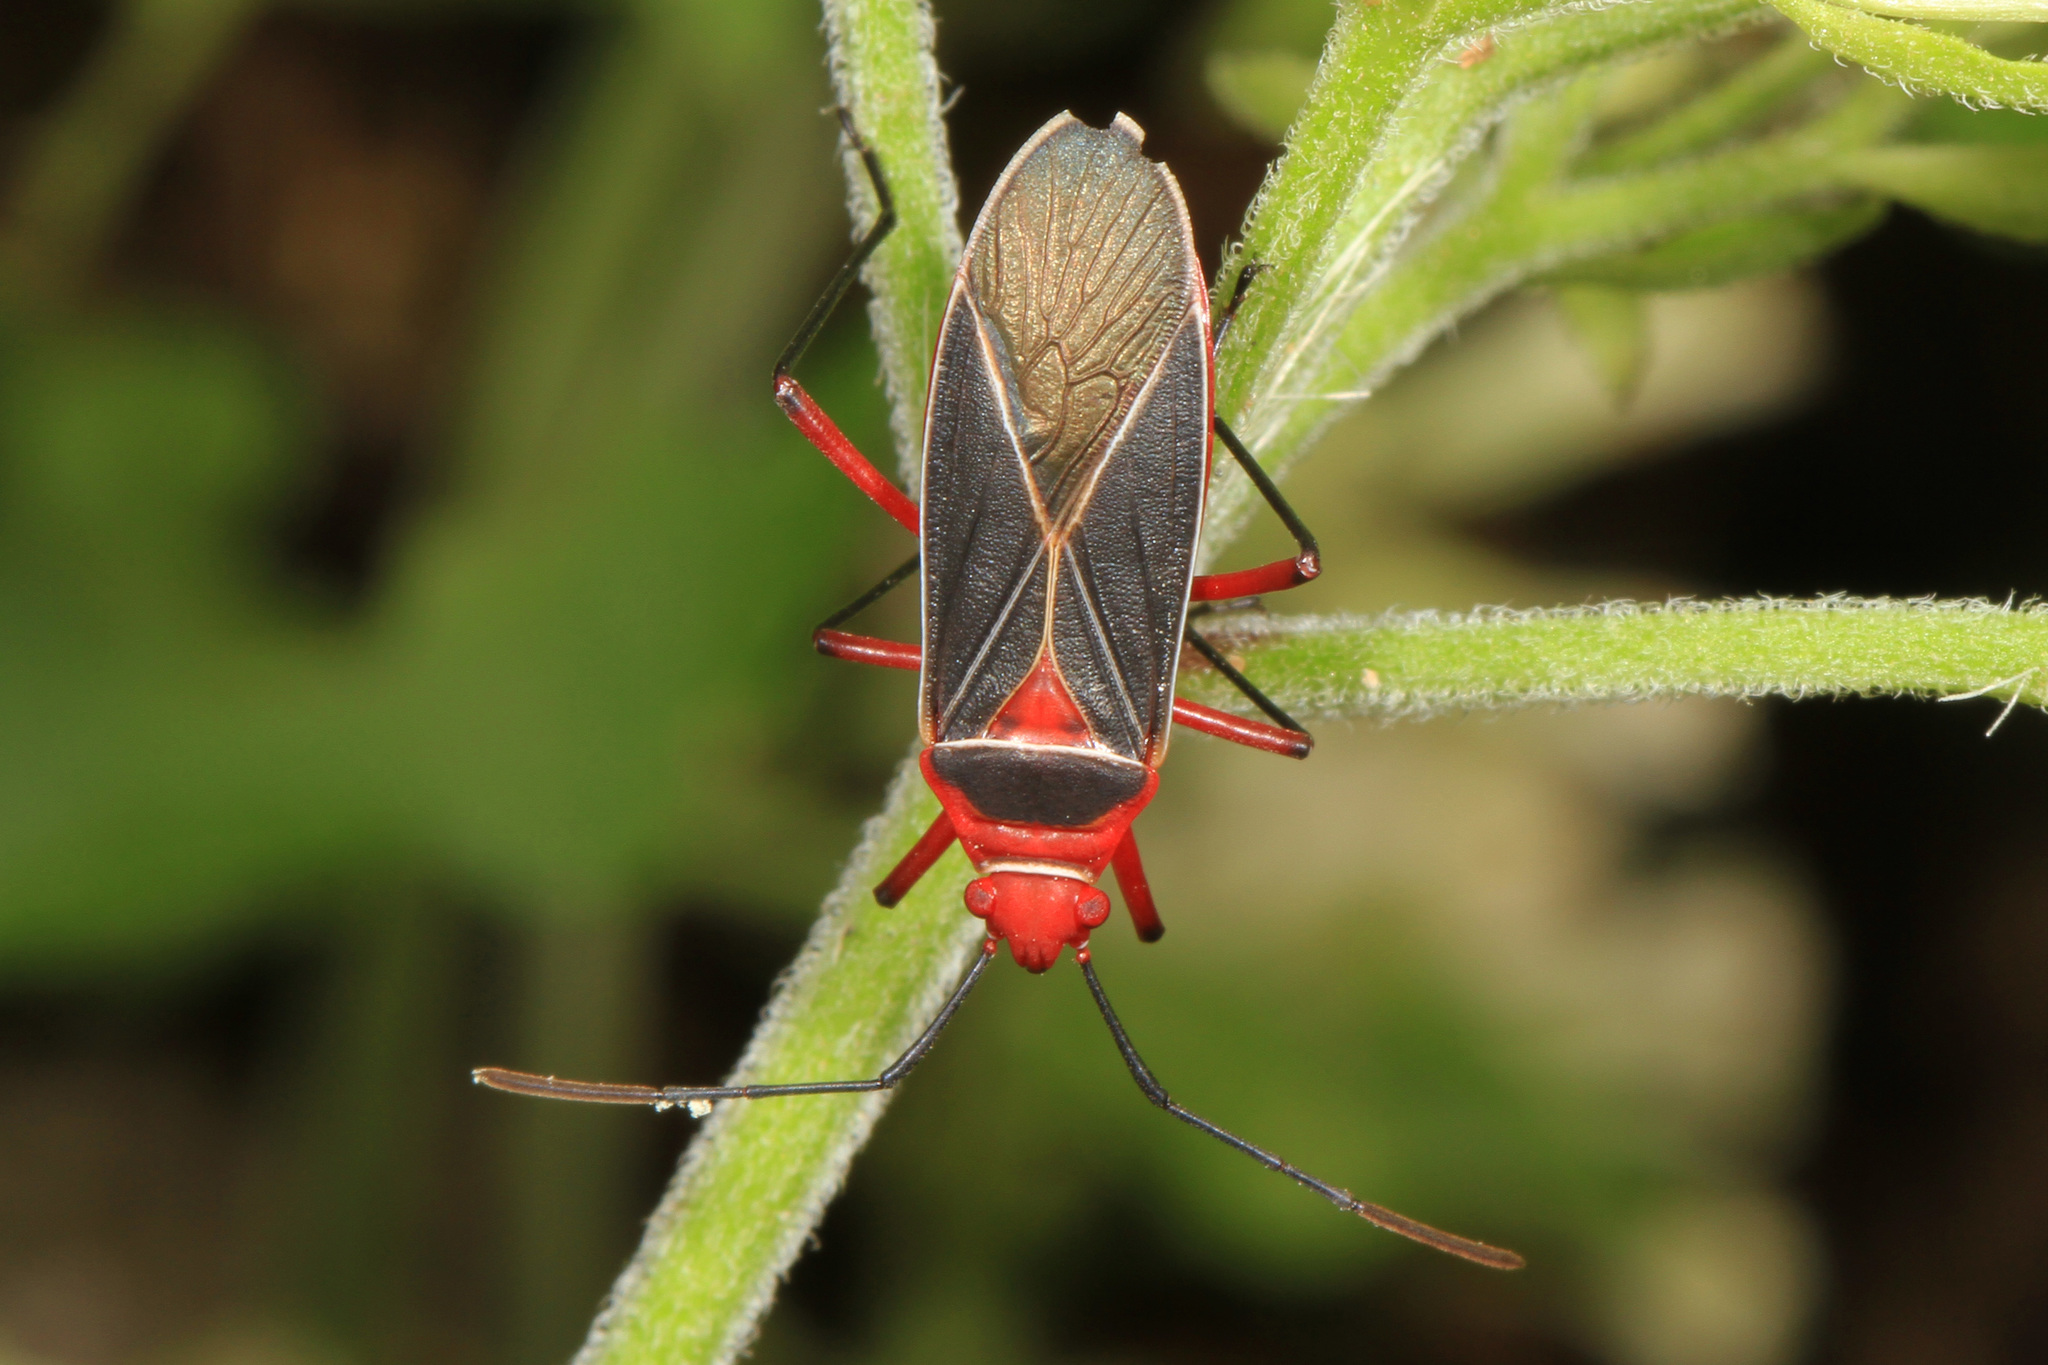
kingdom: Animalia
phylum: Arthropoda
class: Insecta
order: Hemiptera
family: Pyrrhocoridae
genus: Dysdercus
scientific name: Dysdercus suturellus
